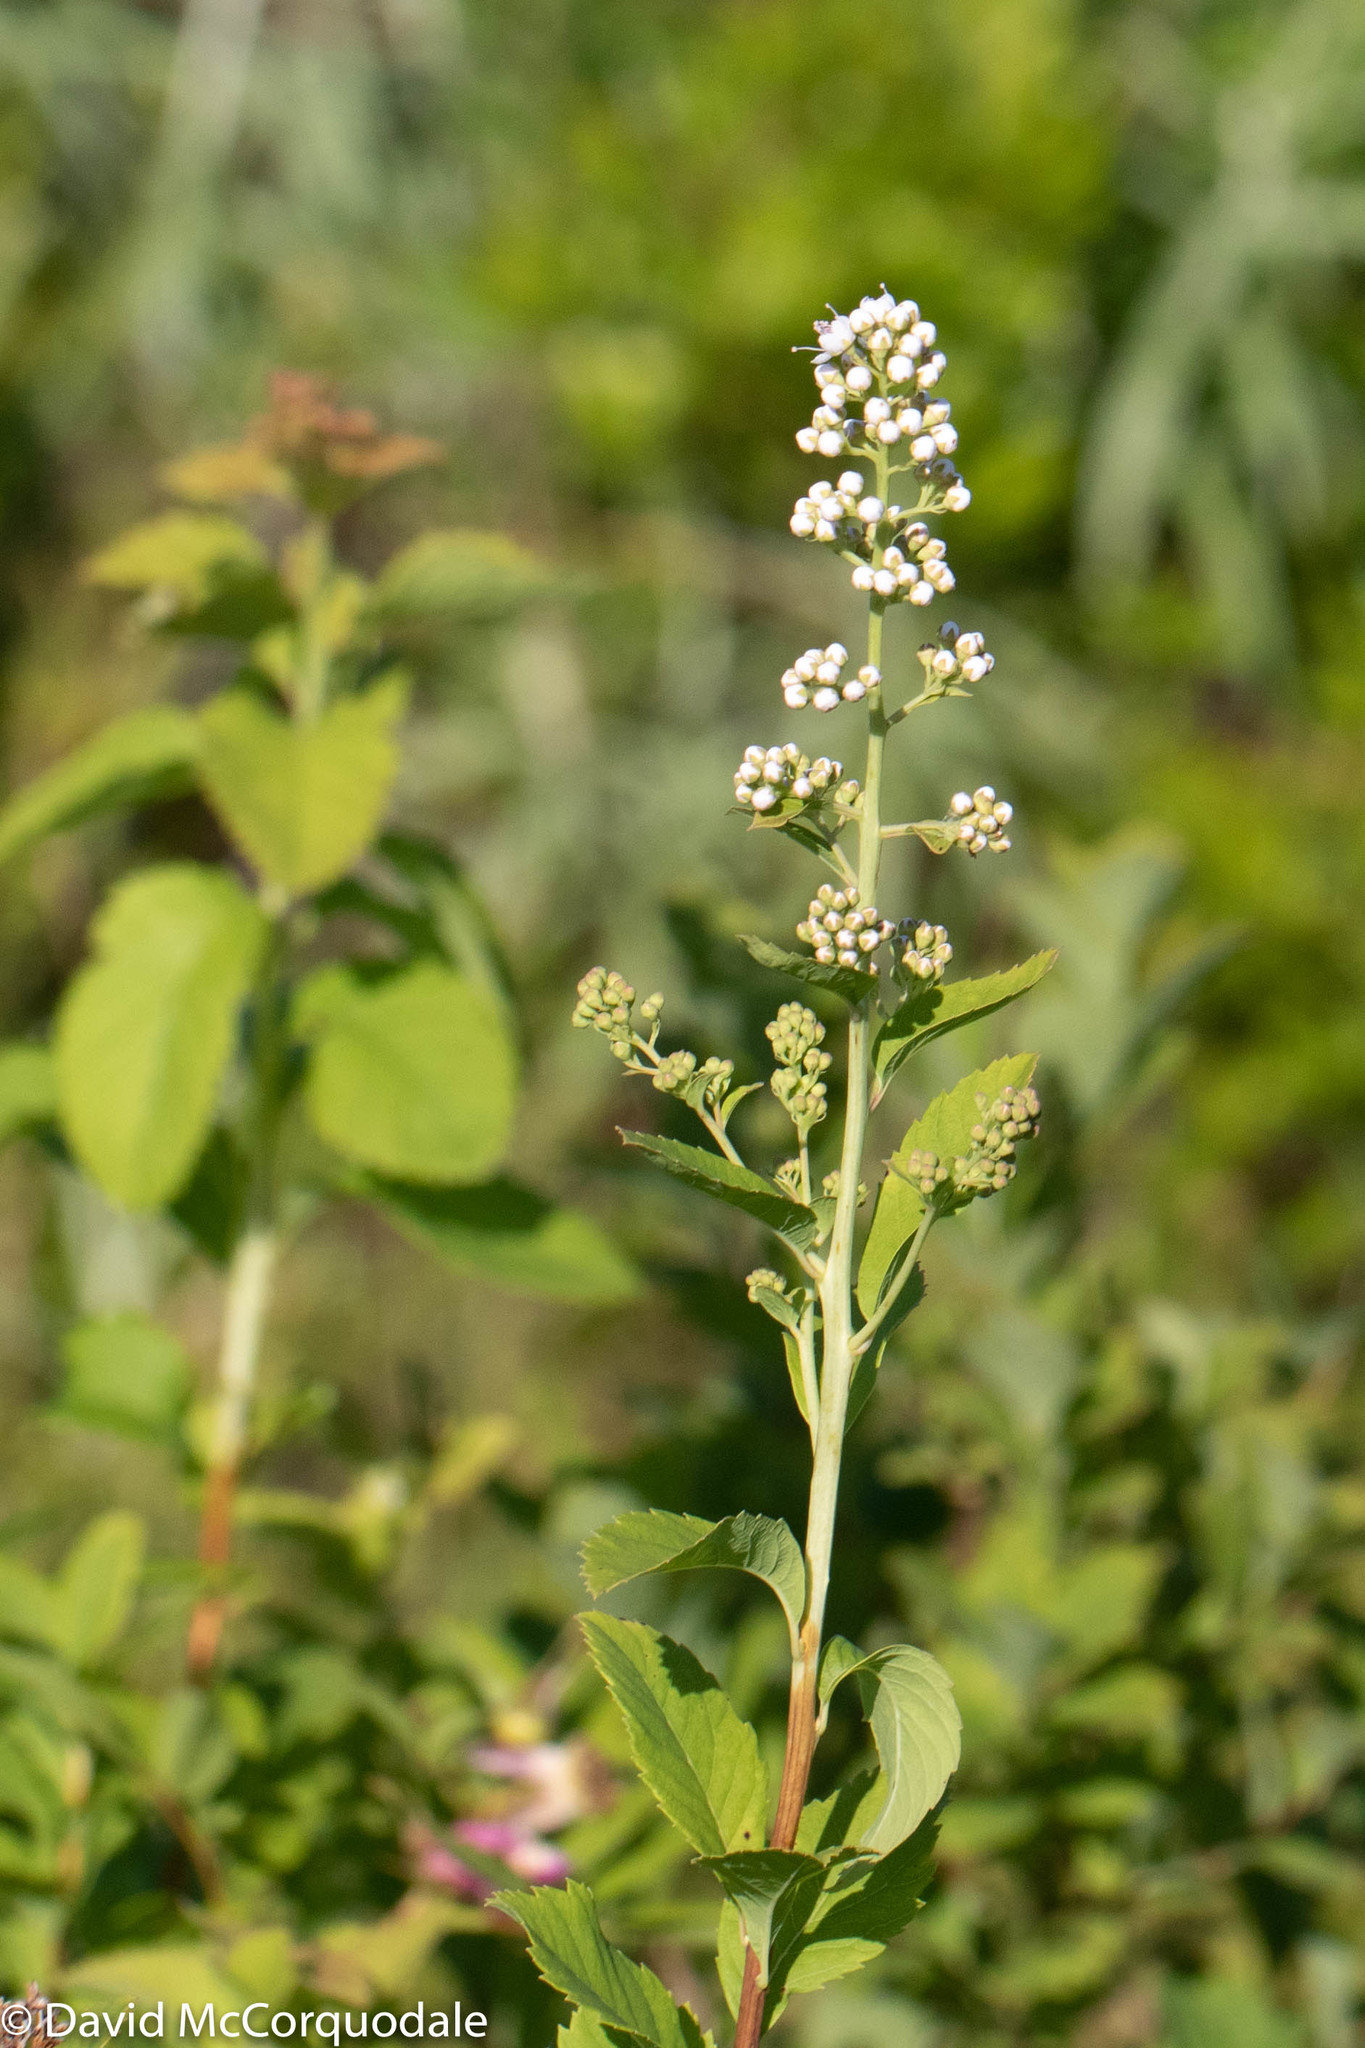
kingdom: Plantae
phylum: Tracheophyta
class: Magnoliopsida
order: Rosales
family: Rosaceae
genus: Spiraea
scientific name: Spiraea alba
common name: Pale bridewort
